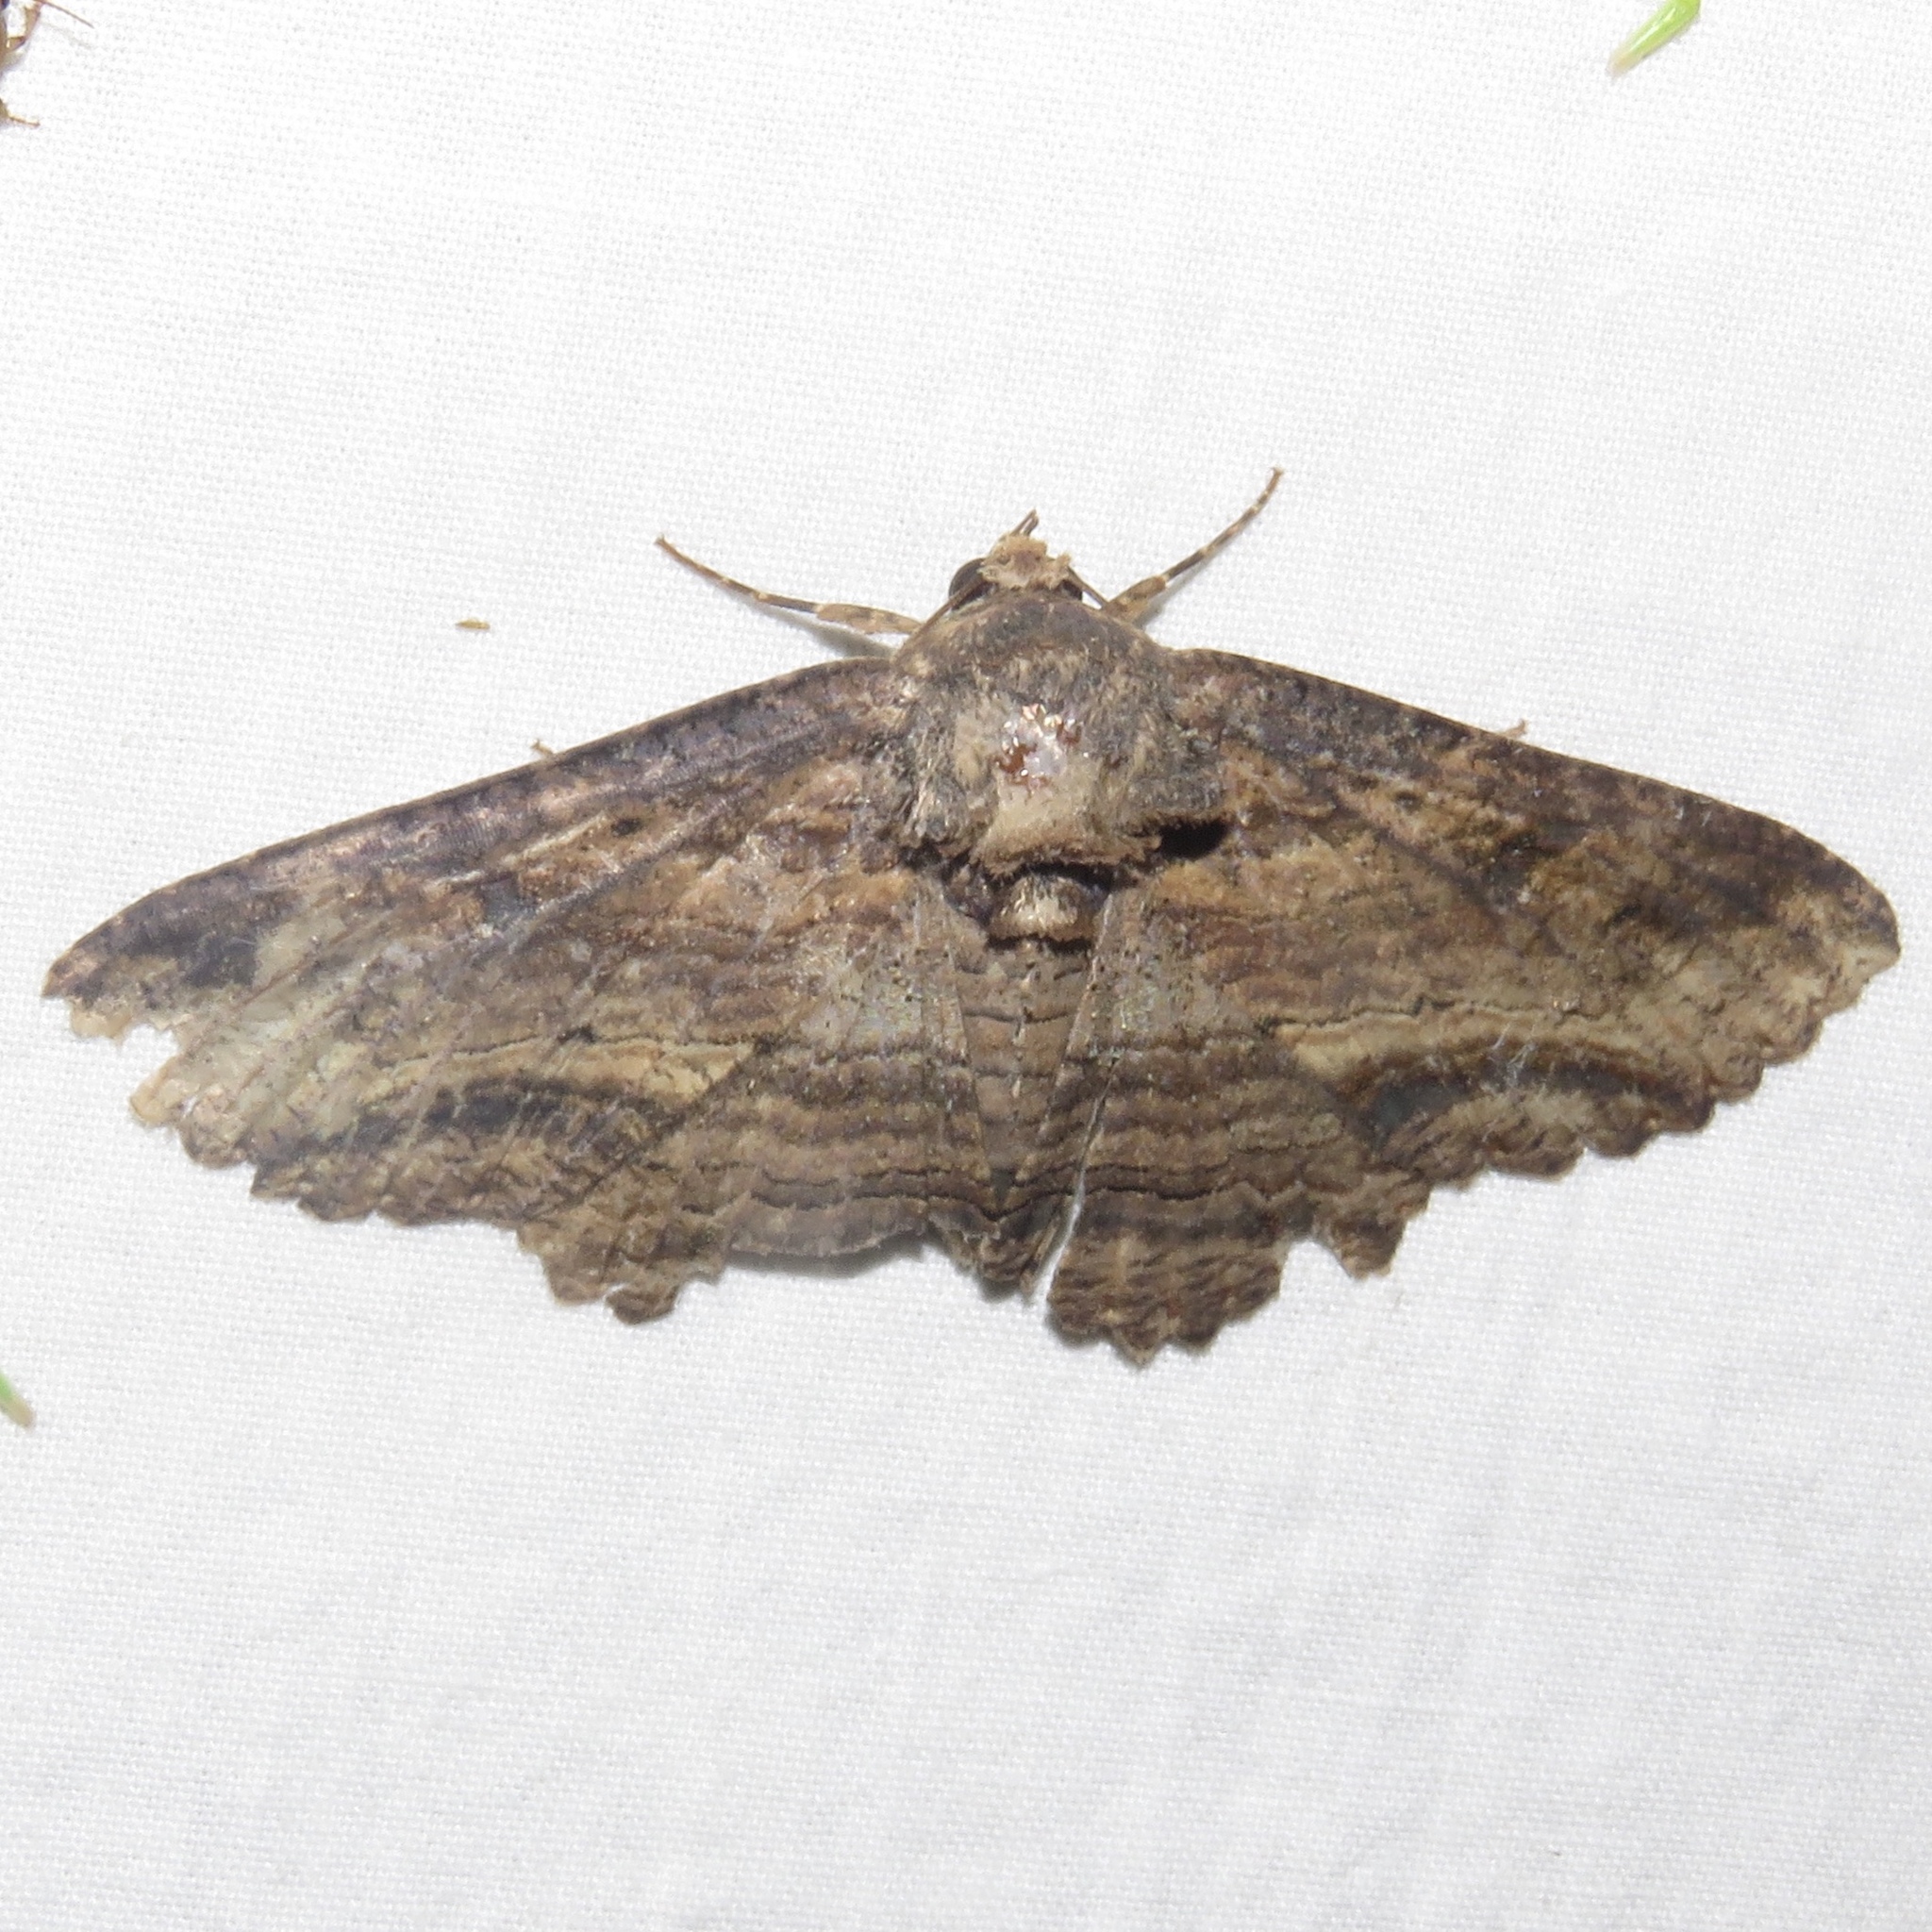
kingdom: Animalia
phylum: Arthropoda
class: Insecta
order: Lepidoptera
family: Erebidae
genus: Zale
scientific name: Zale lunata
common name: Lunate zale moth
